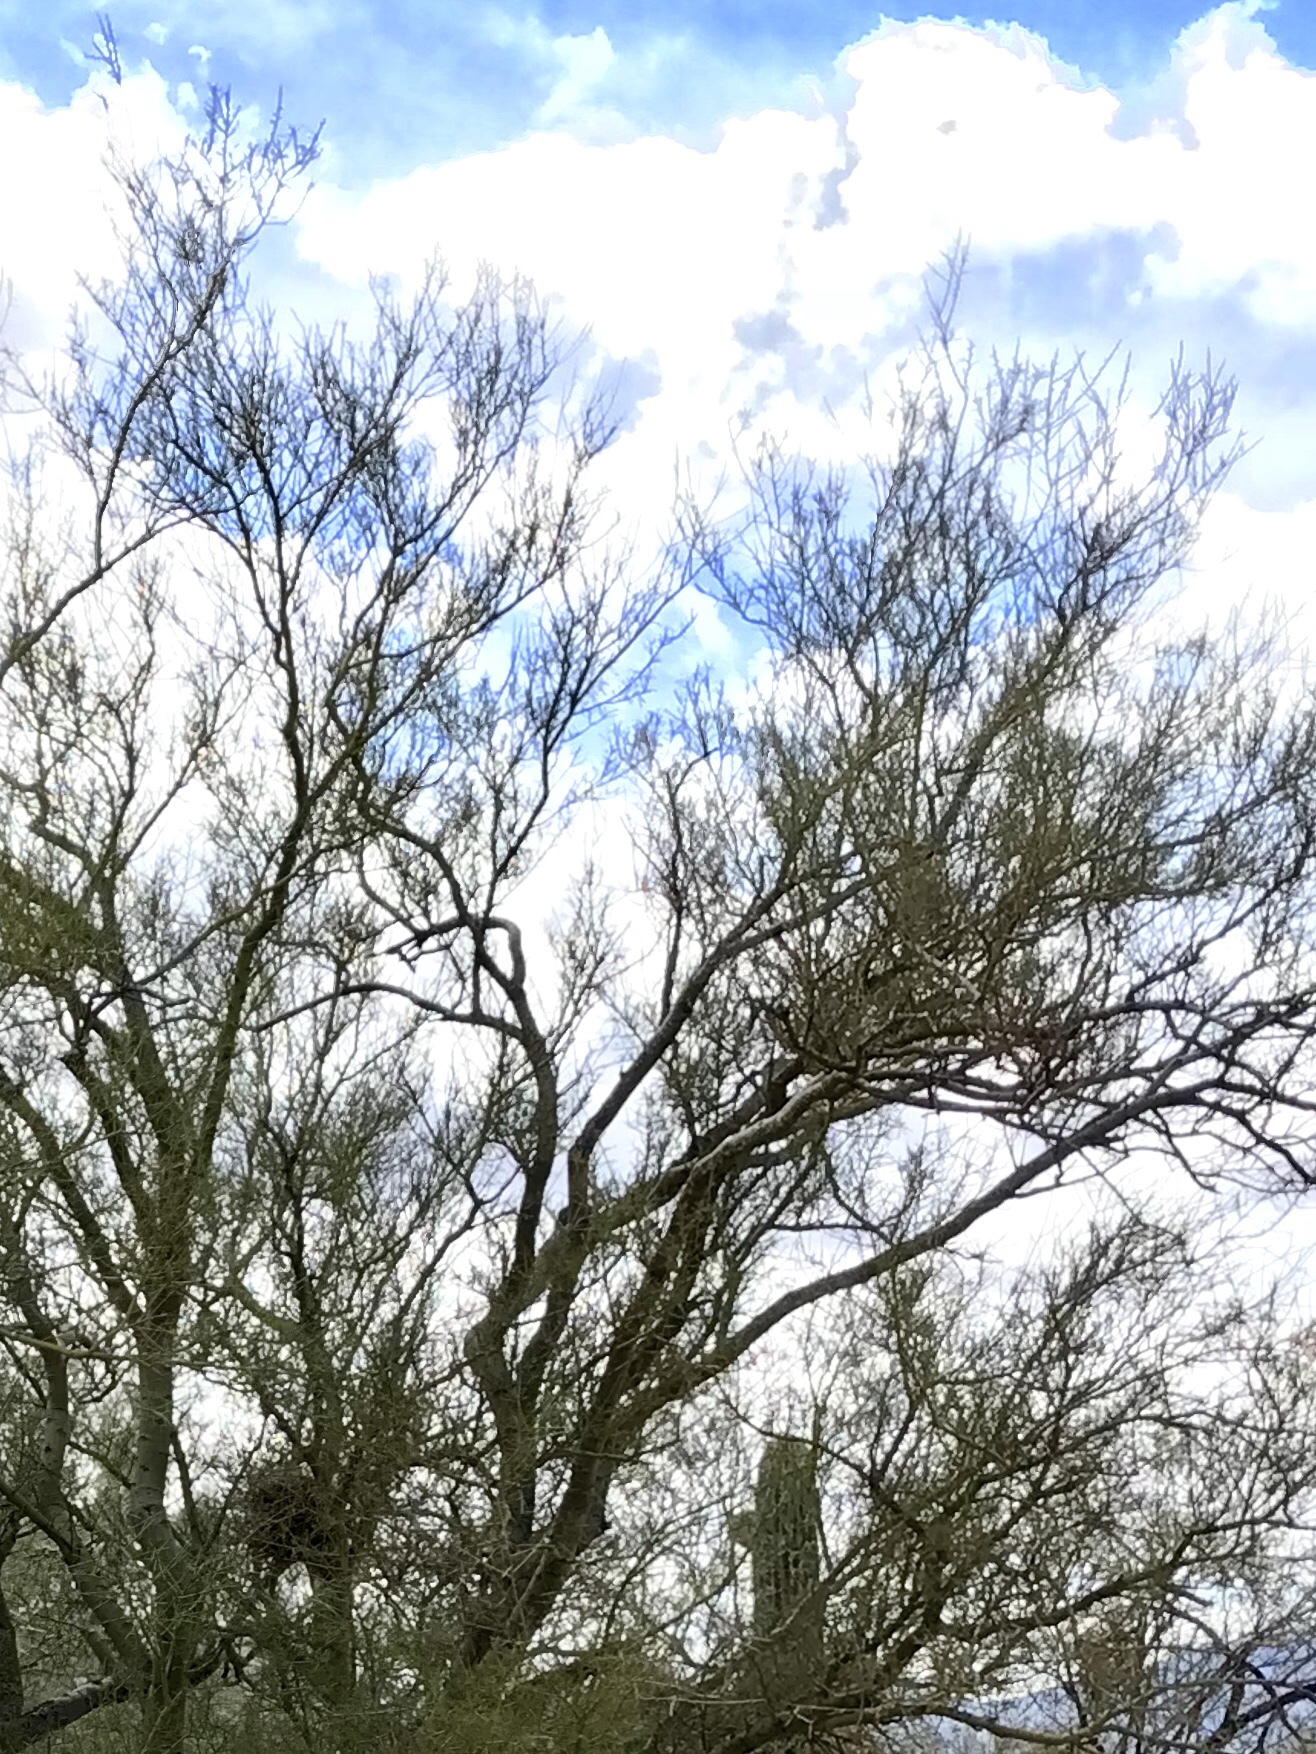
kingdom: Plantae
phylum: Tracheophyta
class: Magnoliopsida
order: Fabales
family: Fabaceae
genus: Parkinsonia
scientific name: Parkinsonia microphylla
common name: Yellow paloverde
